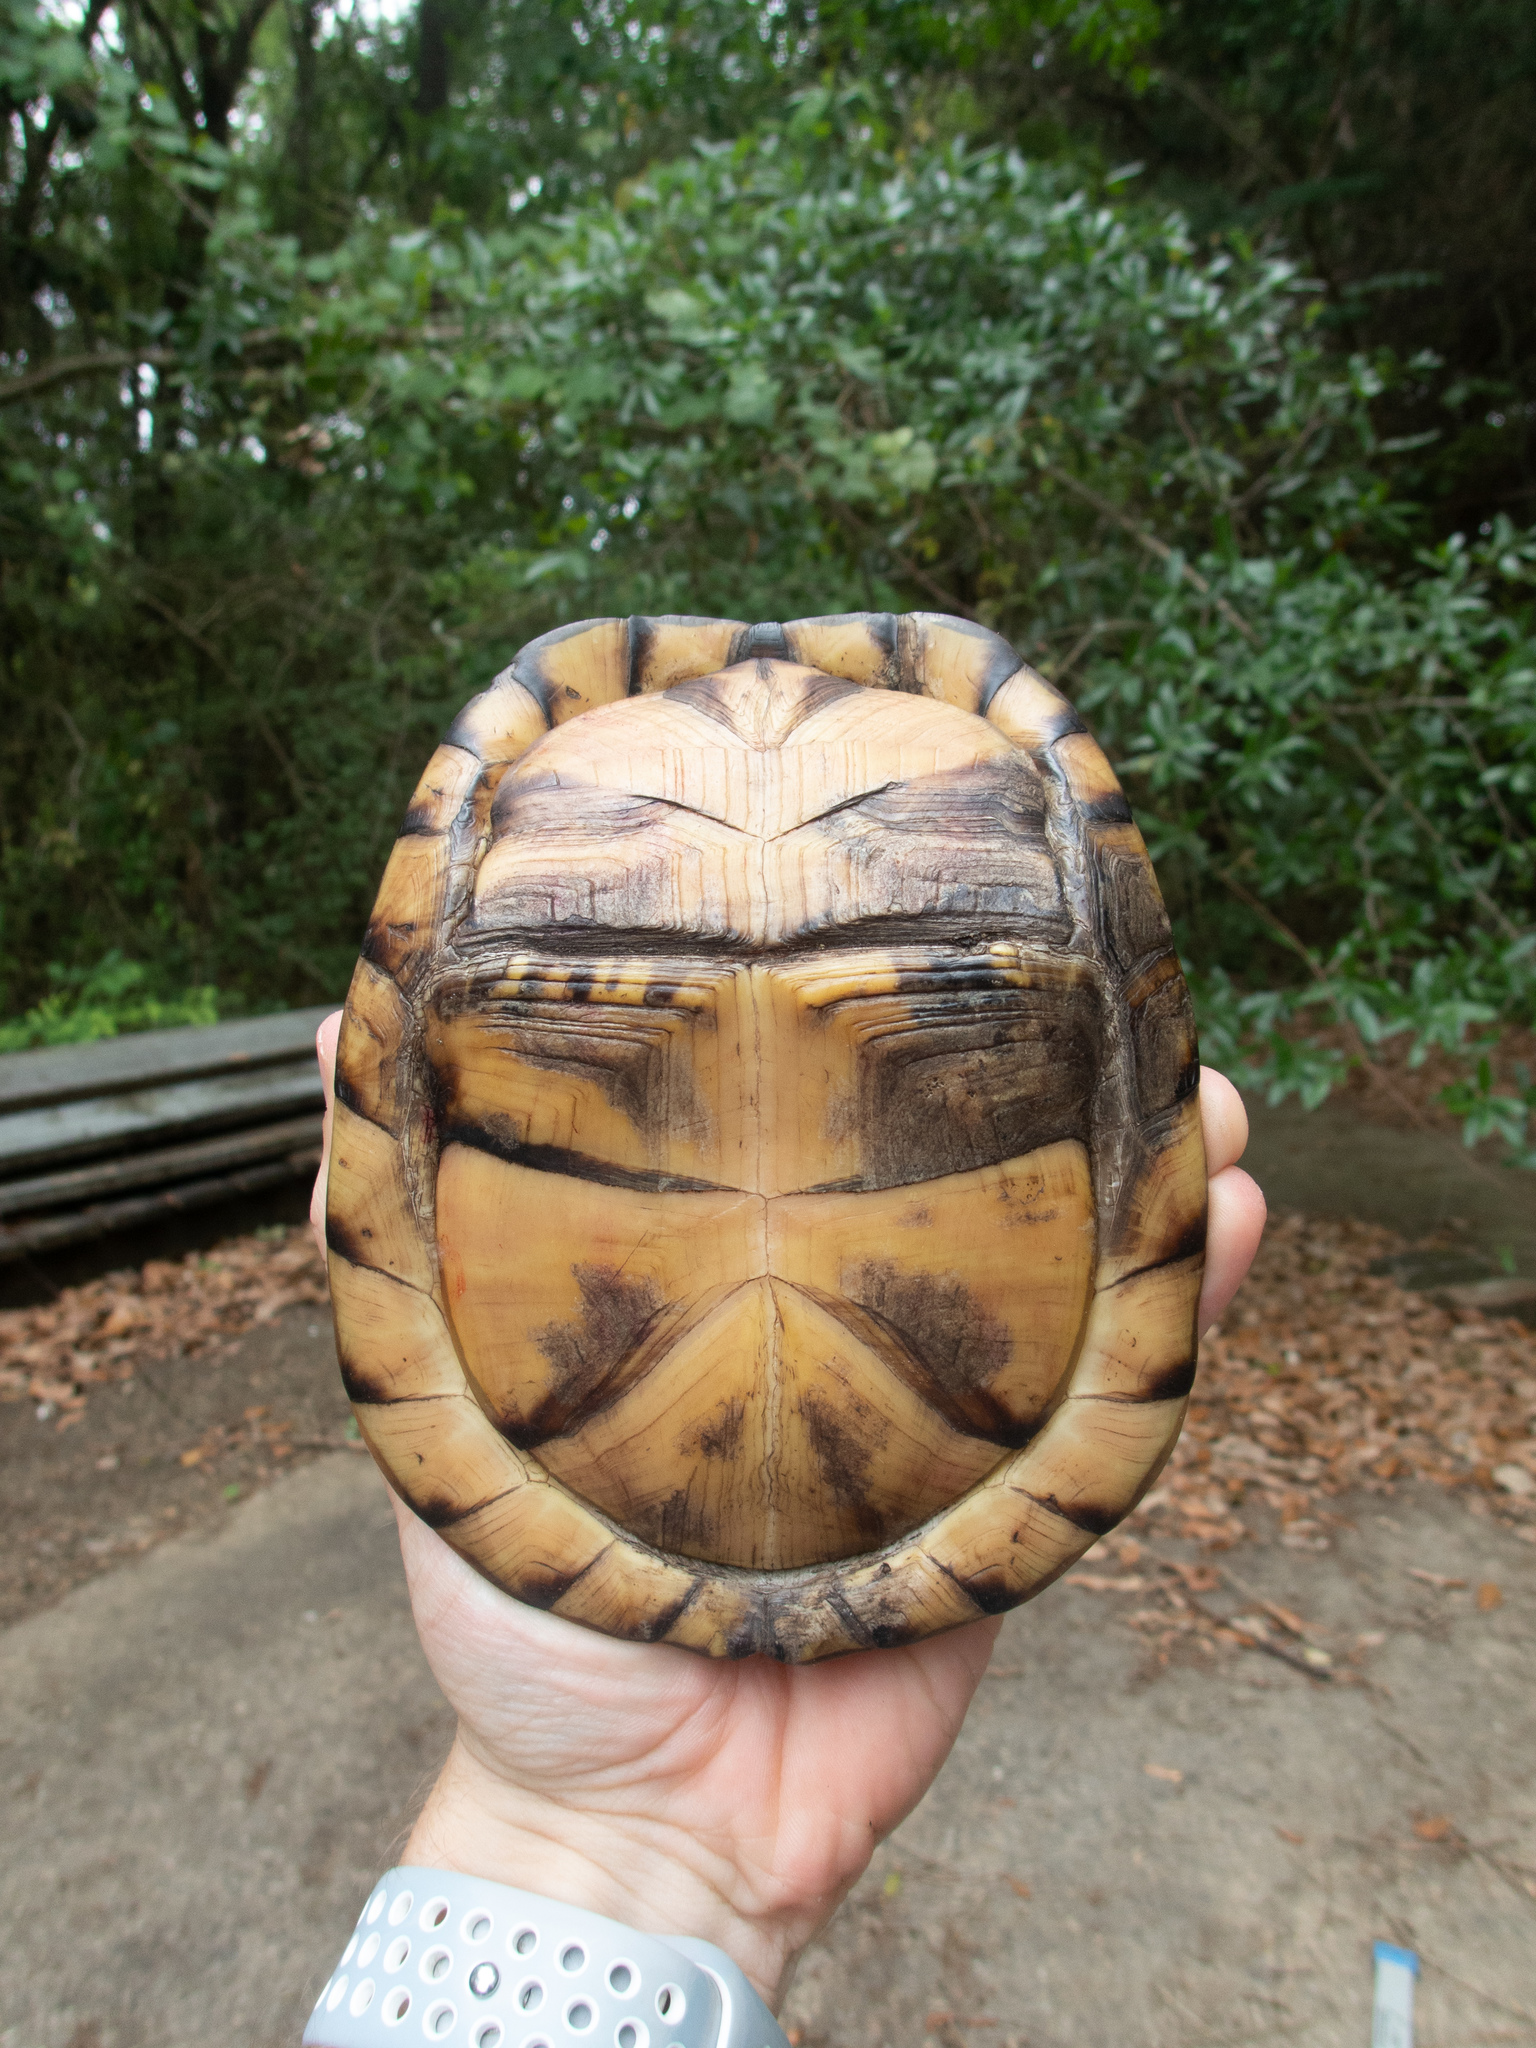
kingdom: Animalia
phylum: Chordata
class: Testudines
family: Emydidae
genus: Terrapene
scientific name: Terrapene carolina
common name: Common box turtle
